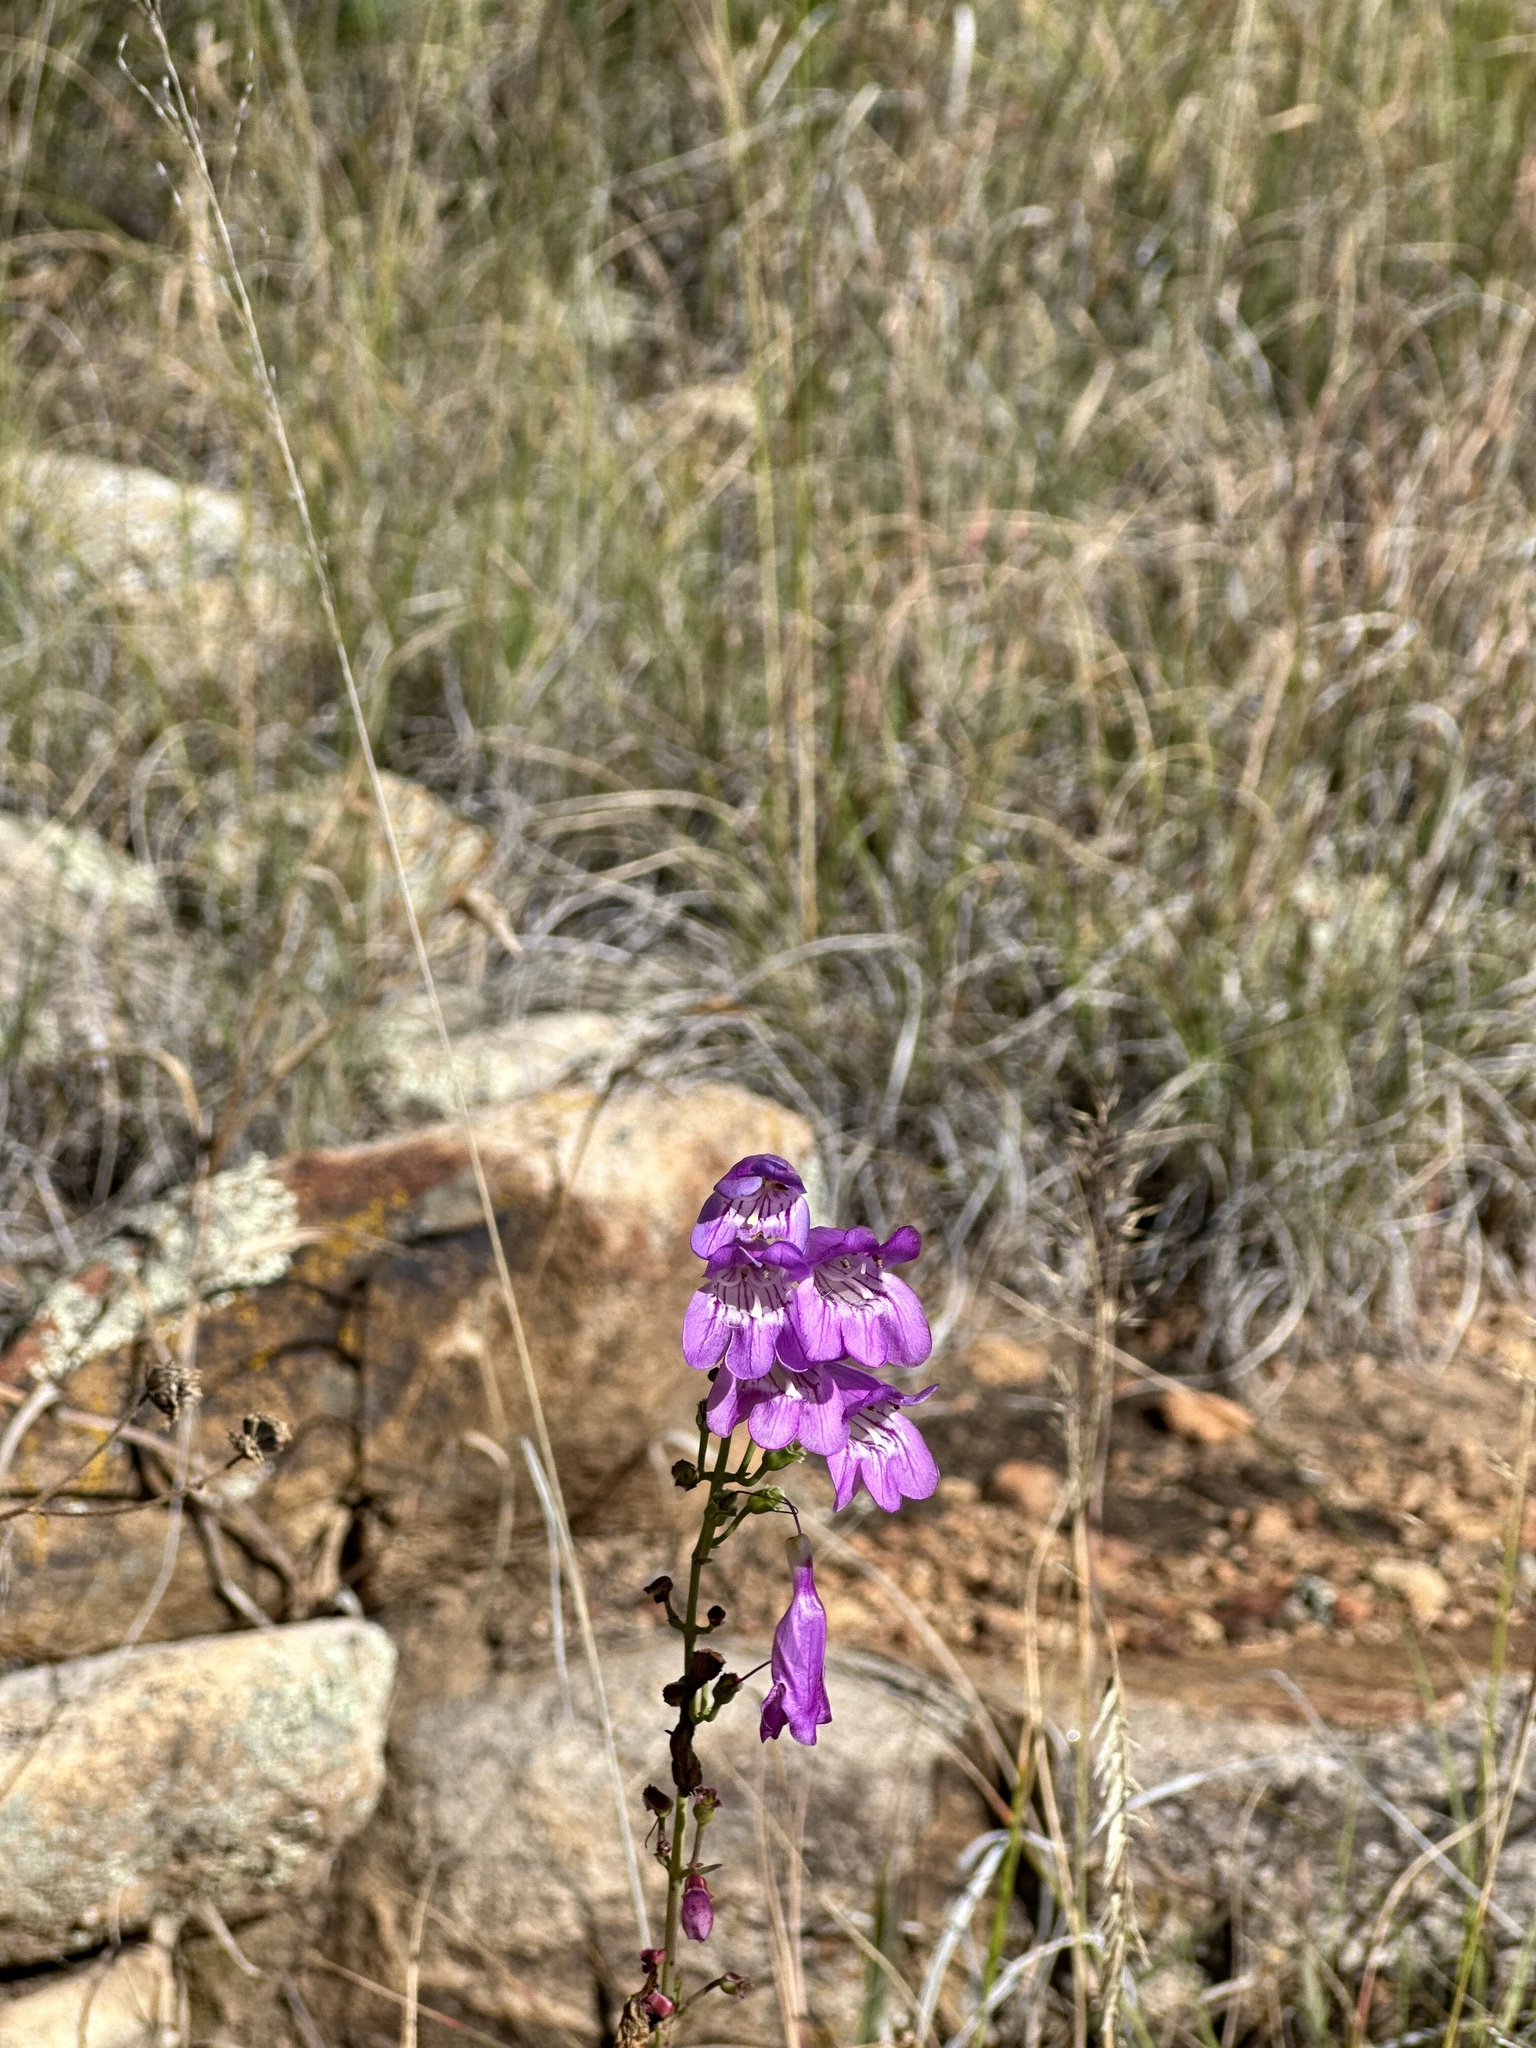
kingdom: Plantae
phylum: Tracheophyta
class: Magnoliopsida
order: Lamiales
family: Plantaginaceae
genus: Penstemon
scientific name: Penstemon neomexicanus
